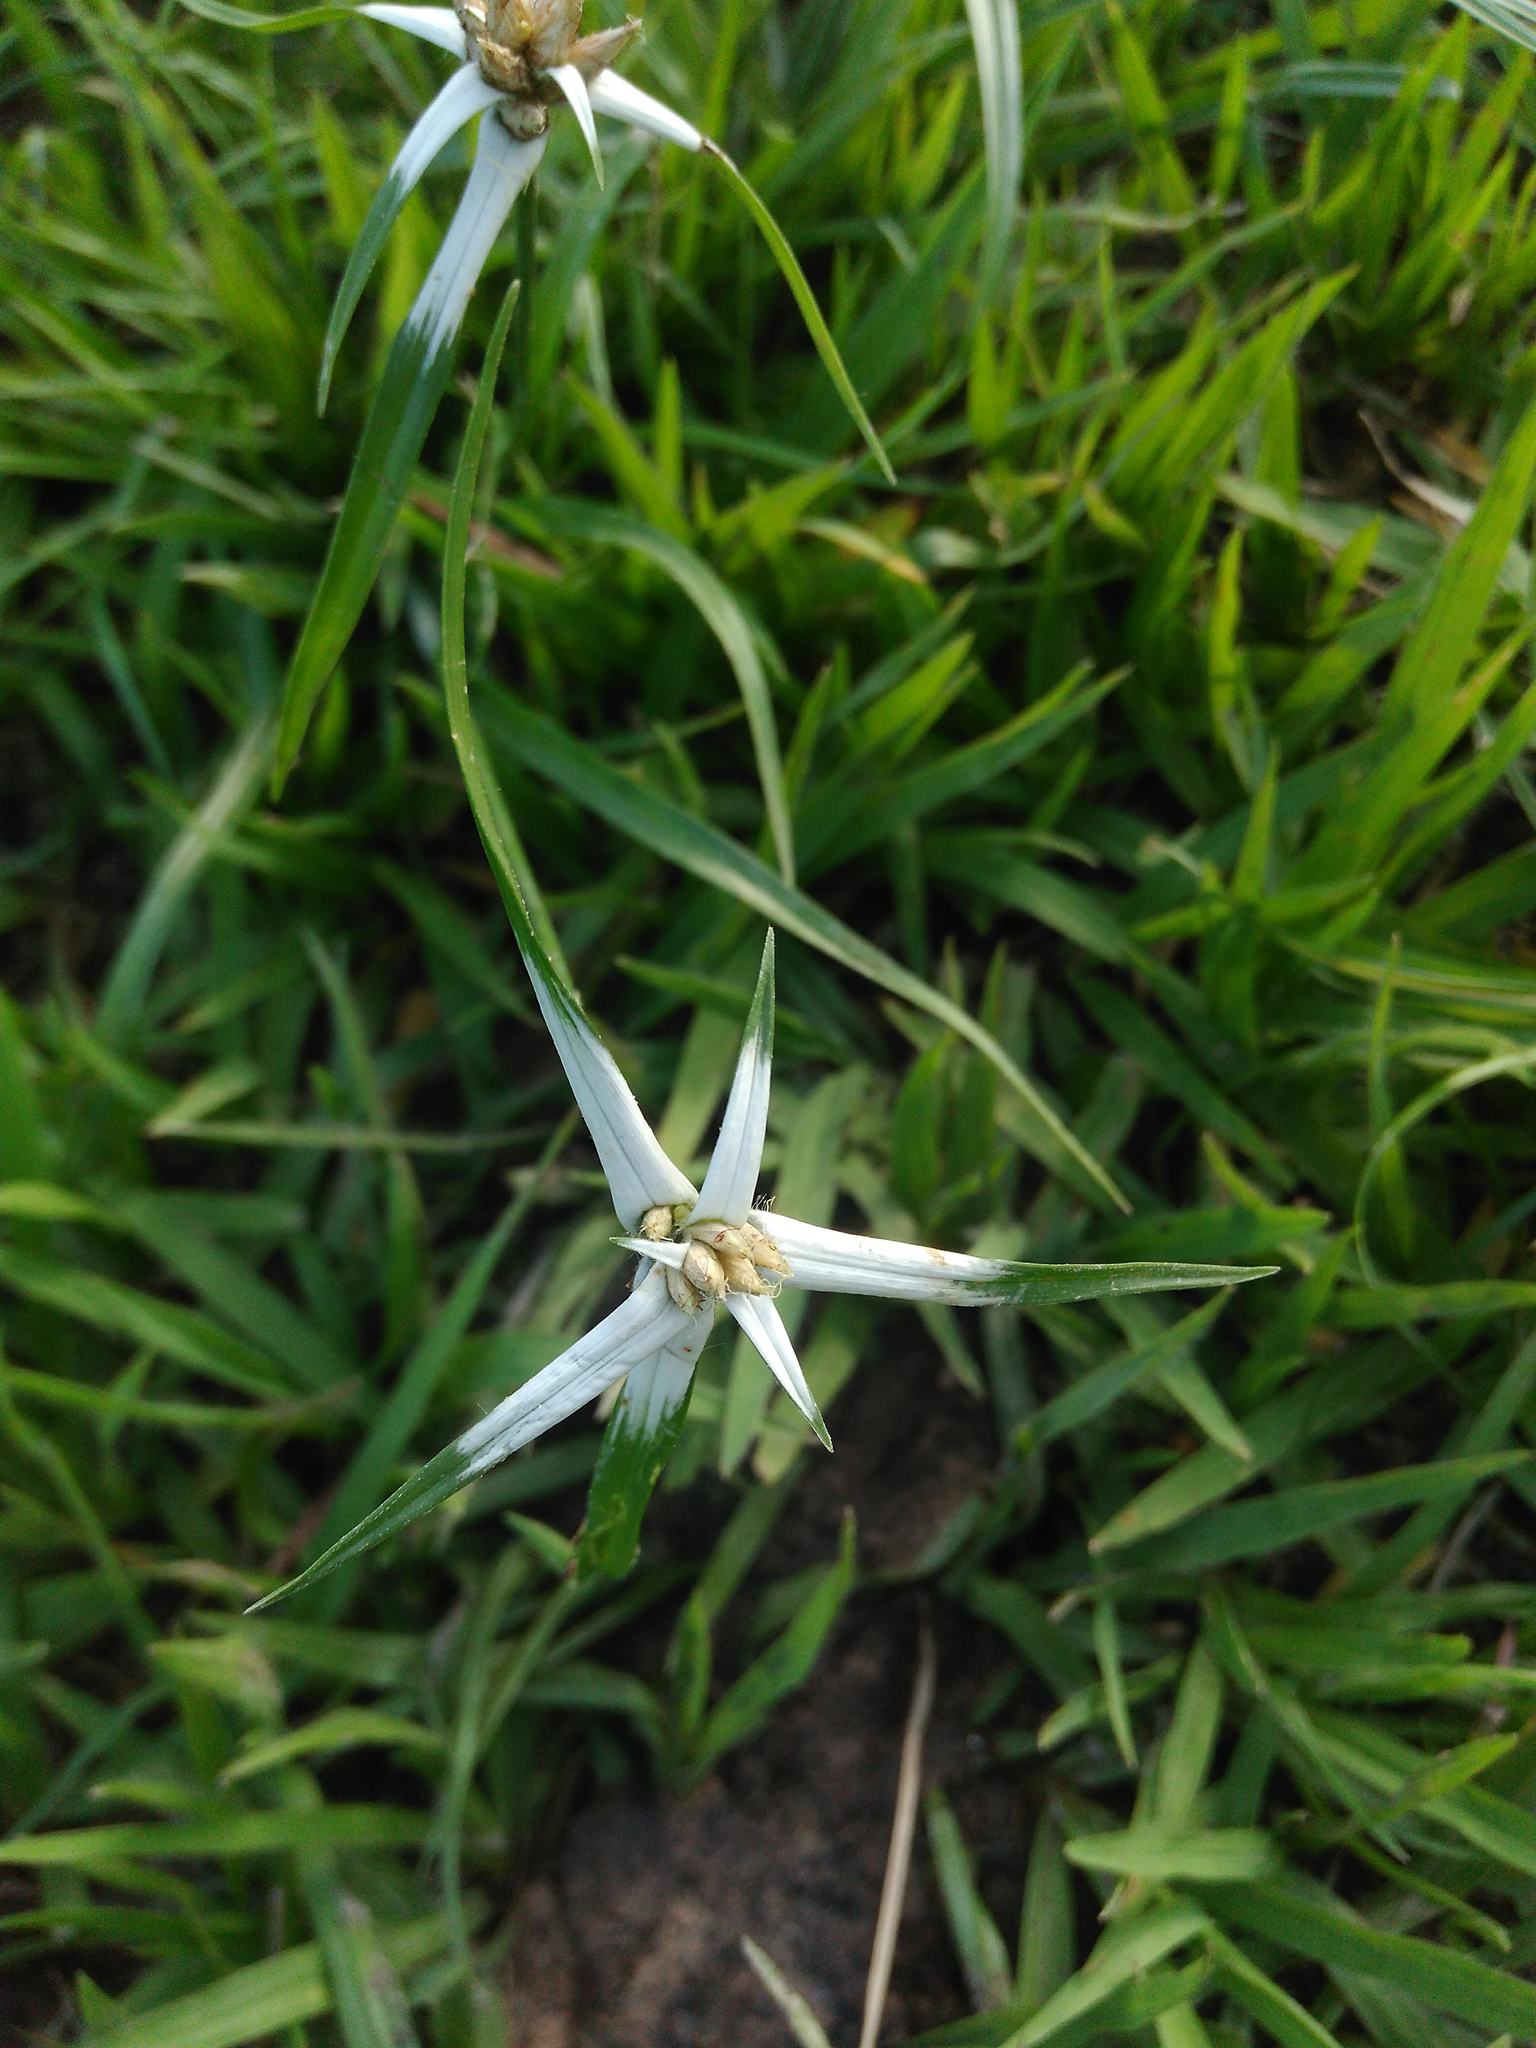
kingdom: Plantae
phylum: Tracheophyta
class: Liliopsida
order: Poales
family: Cyperaceae
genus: Rhynchospora
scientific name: Rhynchospora nervosa
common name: Star sedge
